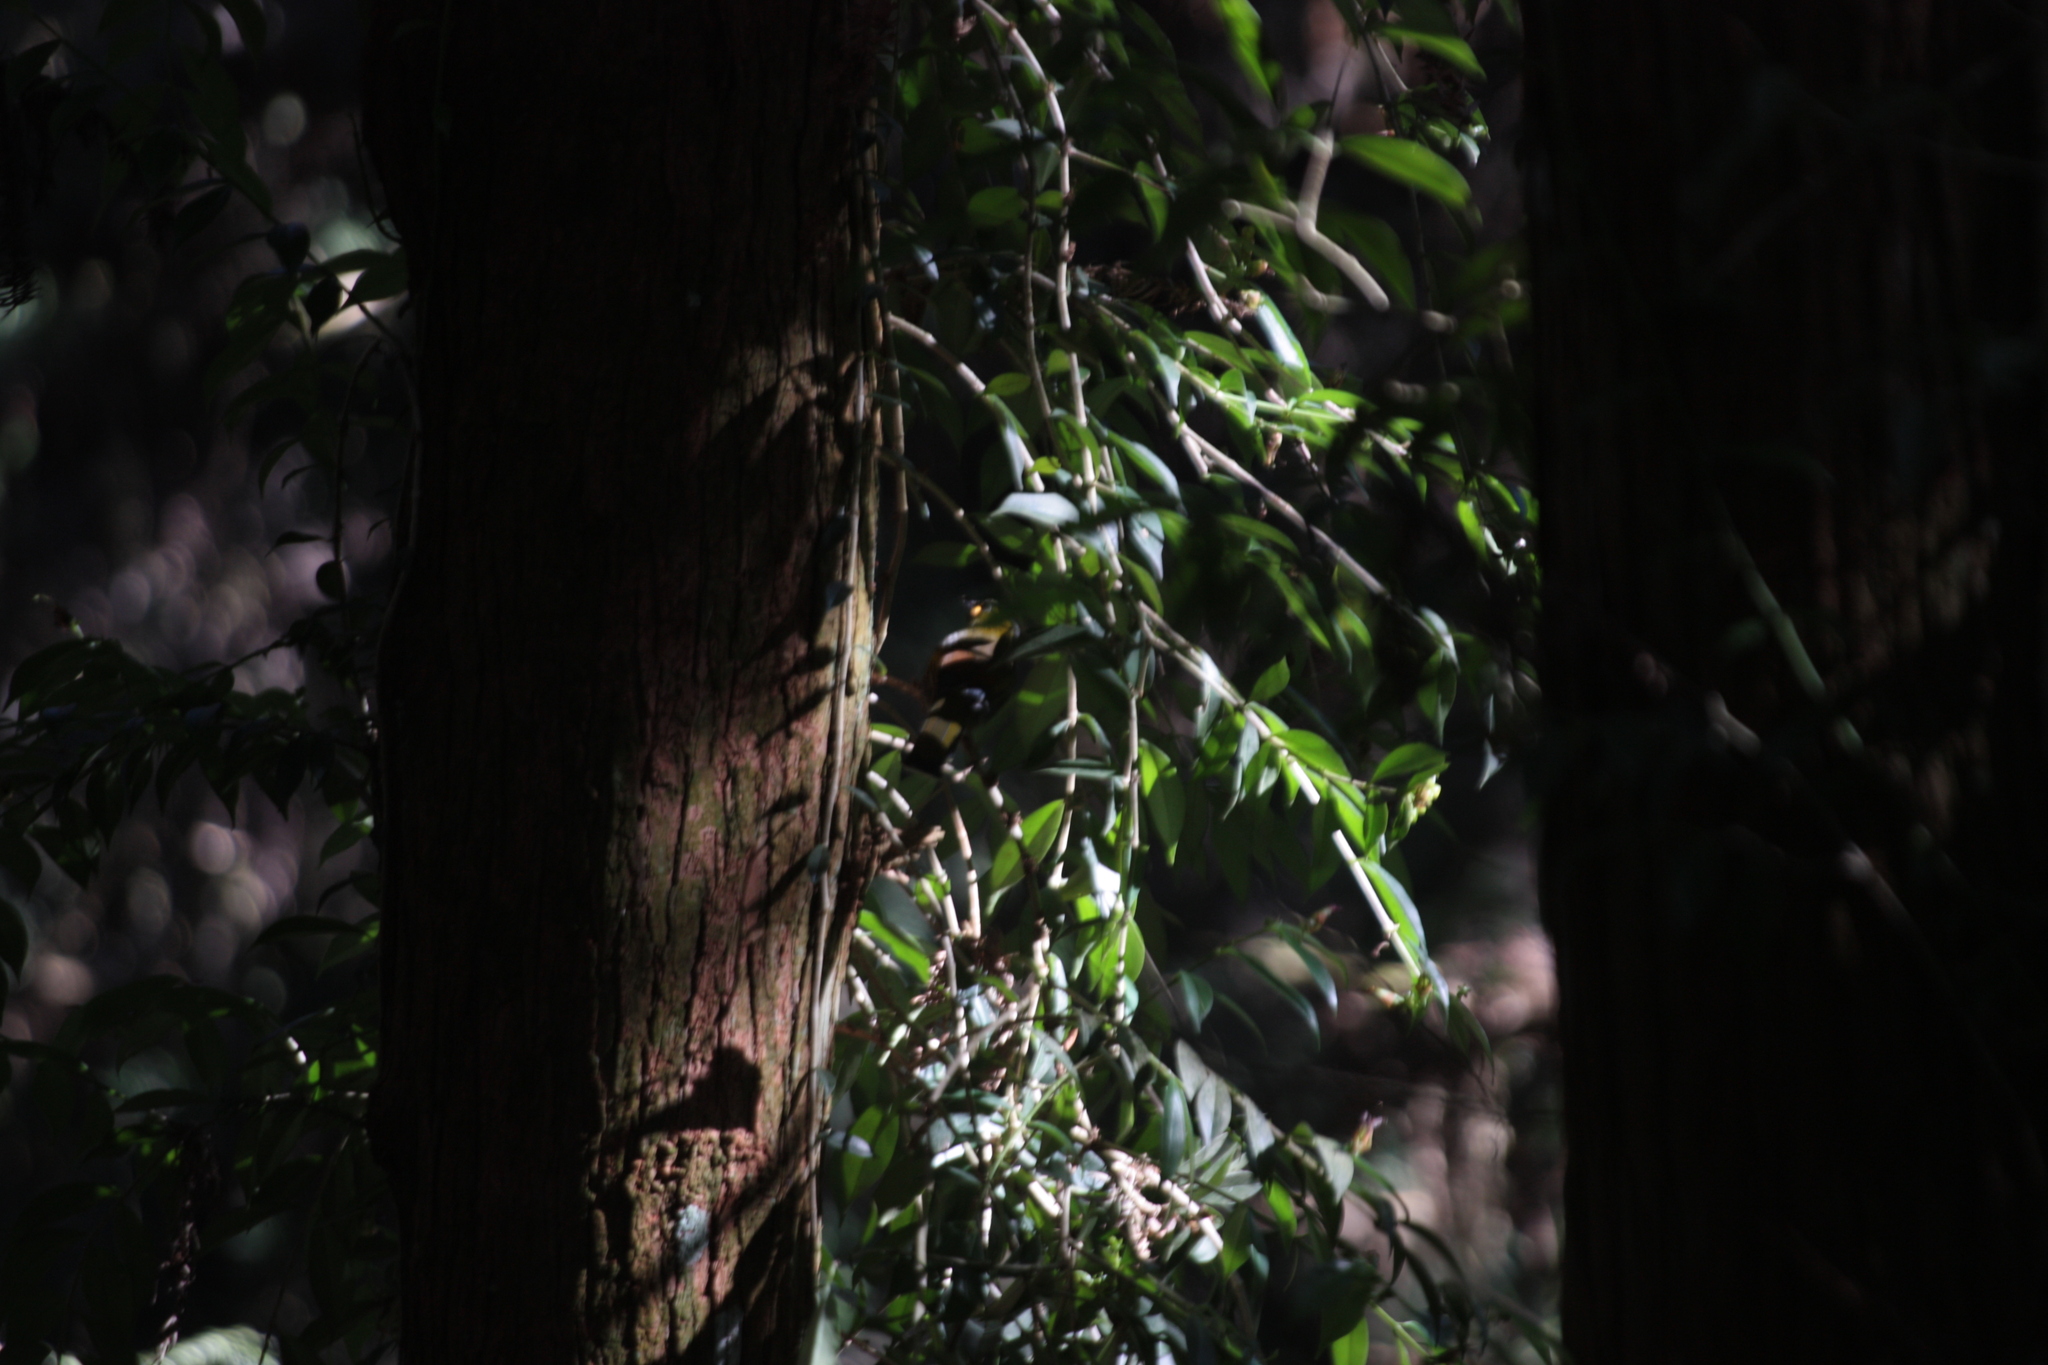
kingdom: Animalia
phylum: Chordata
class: Aves
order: Passeriformes
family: Leiothrichidae
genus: Liocichla
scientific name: Liocichla steerii
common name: Steere's liocichla
